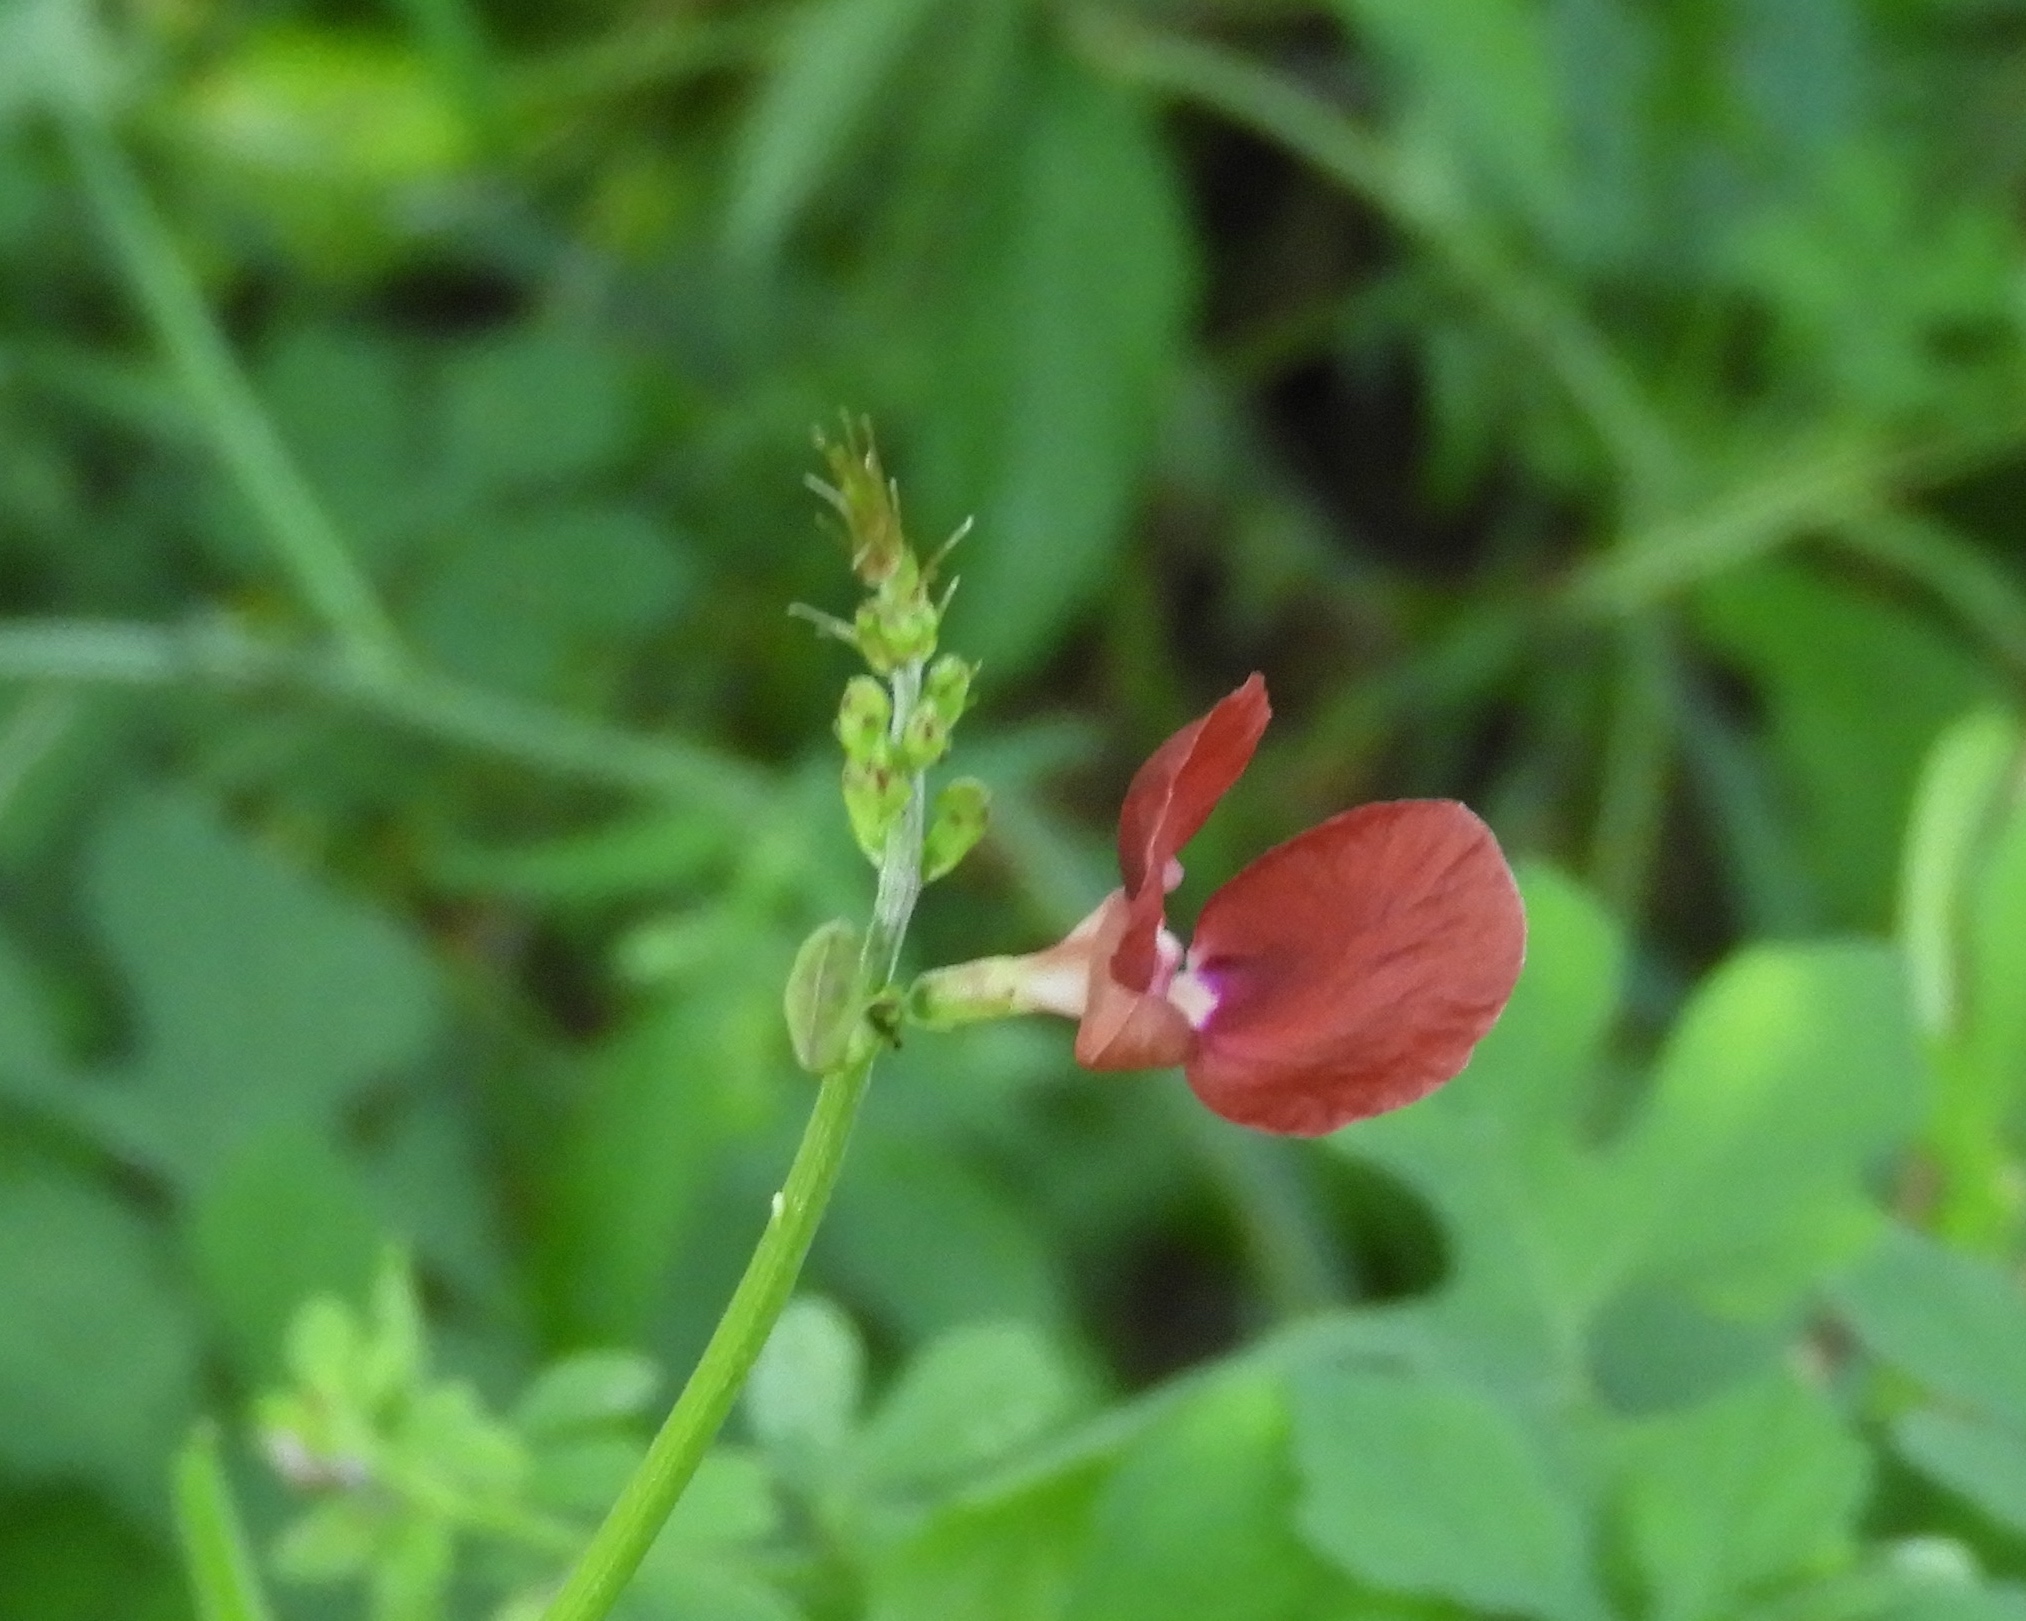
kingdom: Plantae
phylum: Tracheophyta
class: Magnoliopsida
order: Fabales
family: Fabaceae
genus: Macroptilium
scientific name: Macroptilium atropurpureum
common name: Purple bushbean
